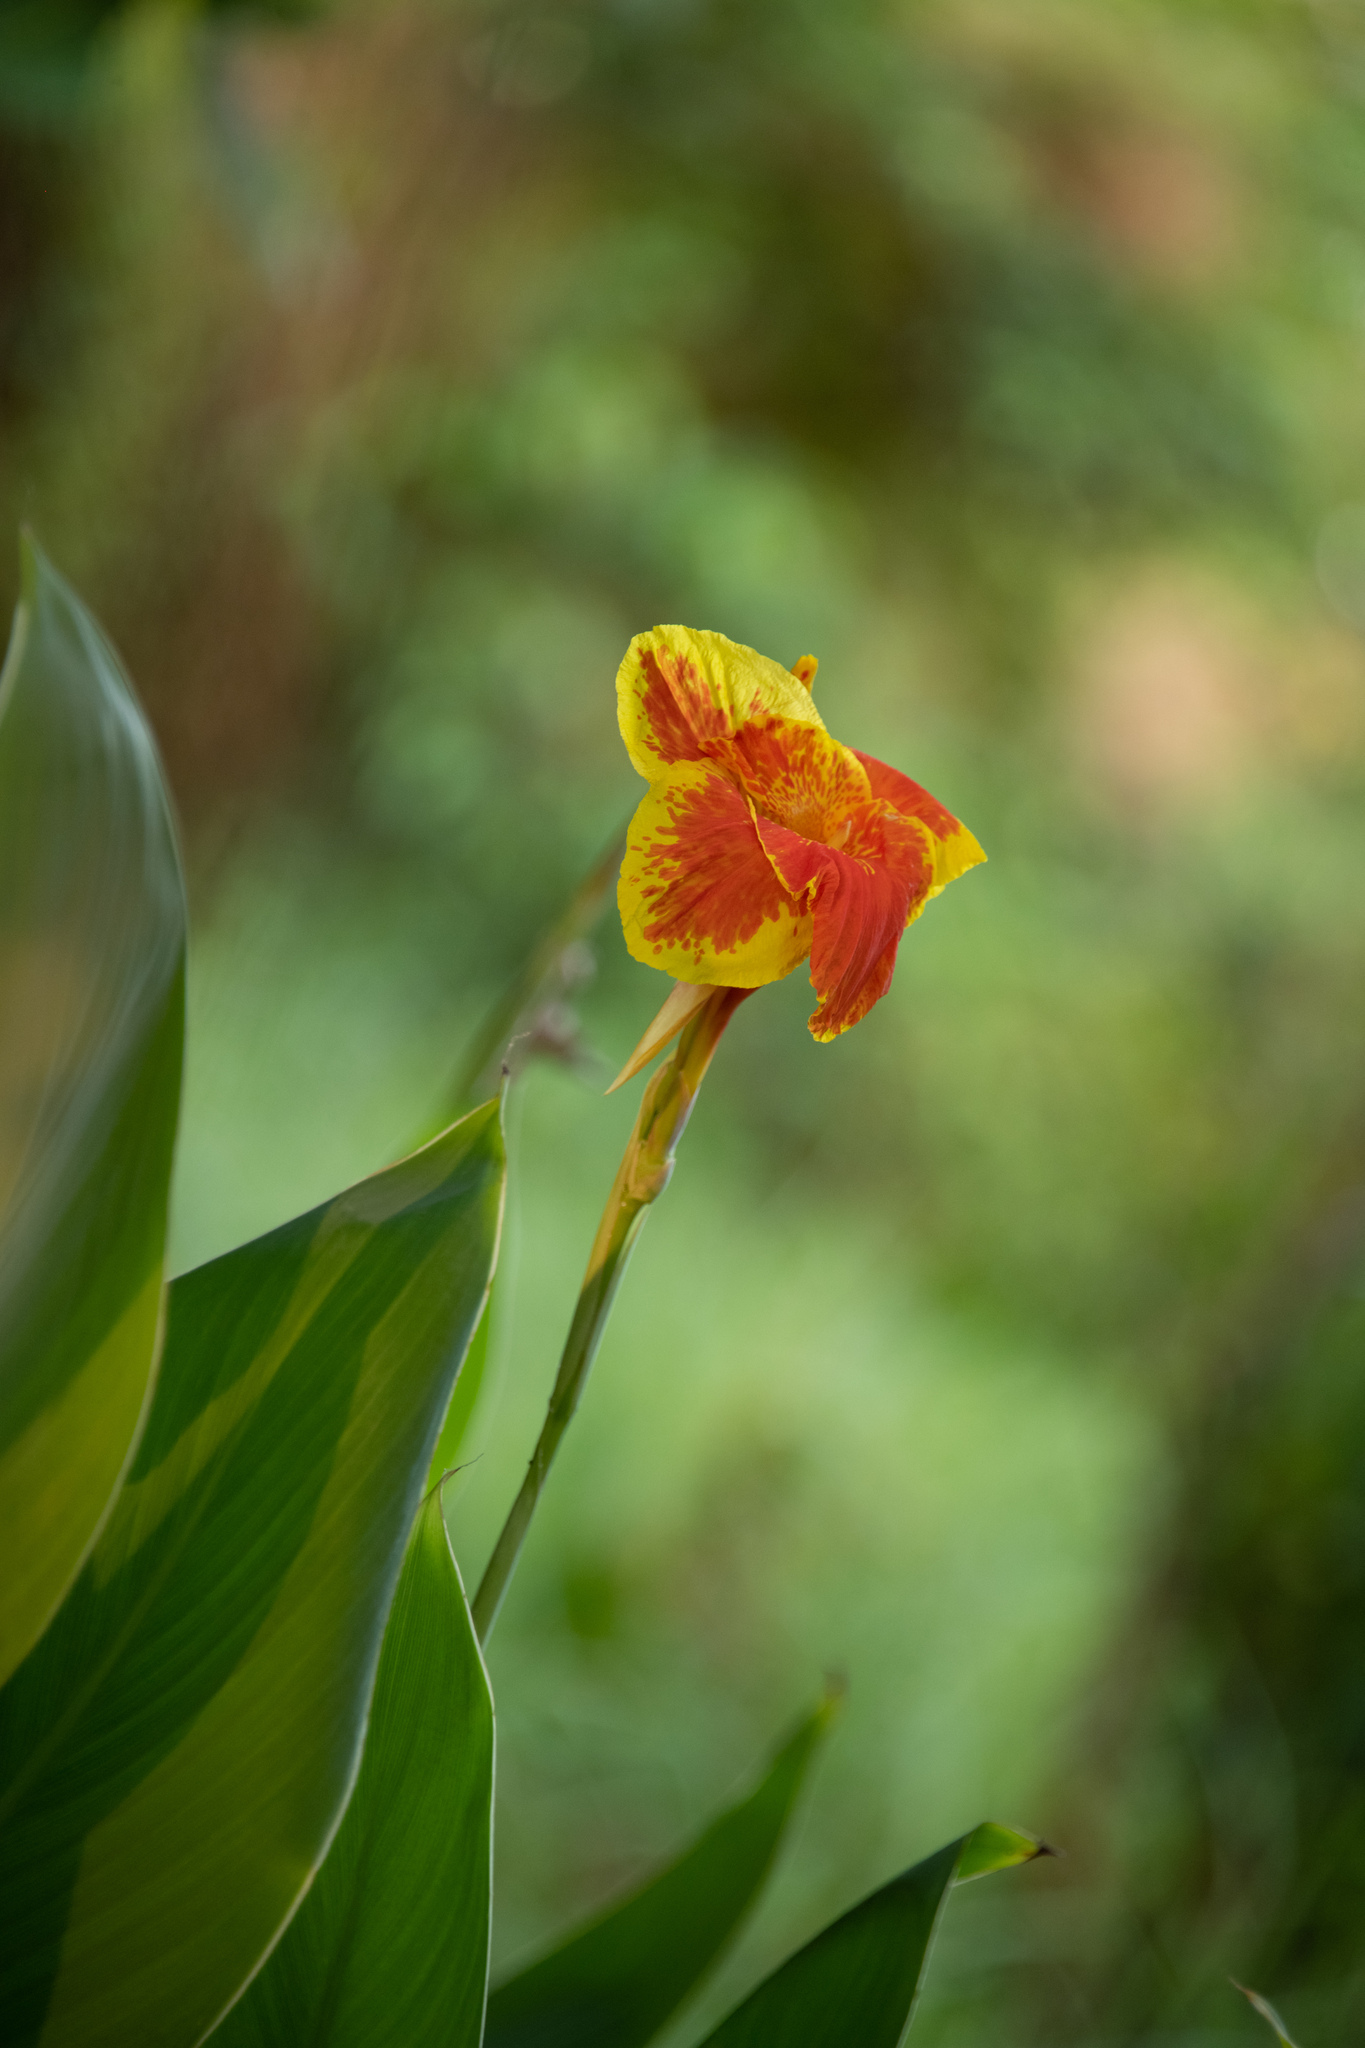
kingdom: Plantae
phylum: Tracheophyta
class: Liliopsida
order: Zingiberales
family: Cannaceae
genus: Canna
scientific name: Canna hybrida
